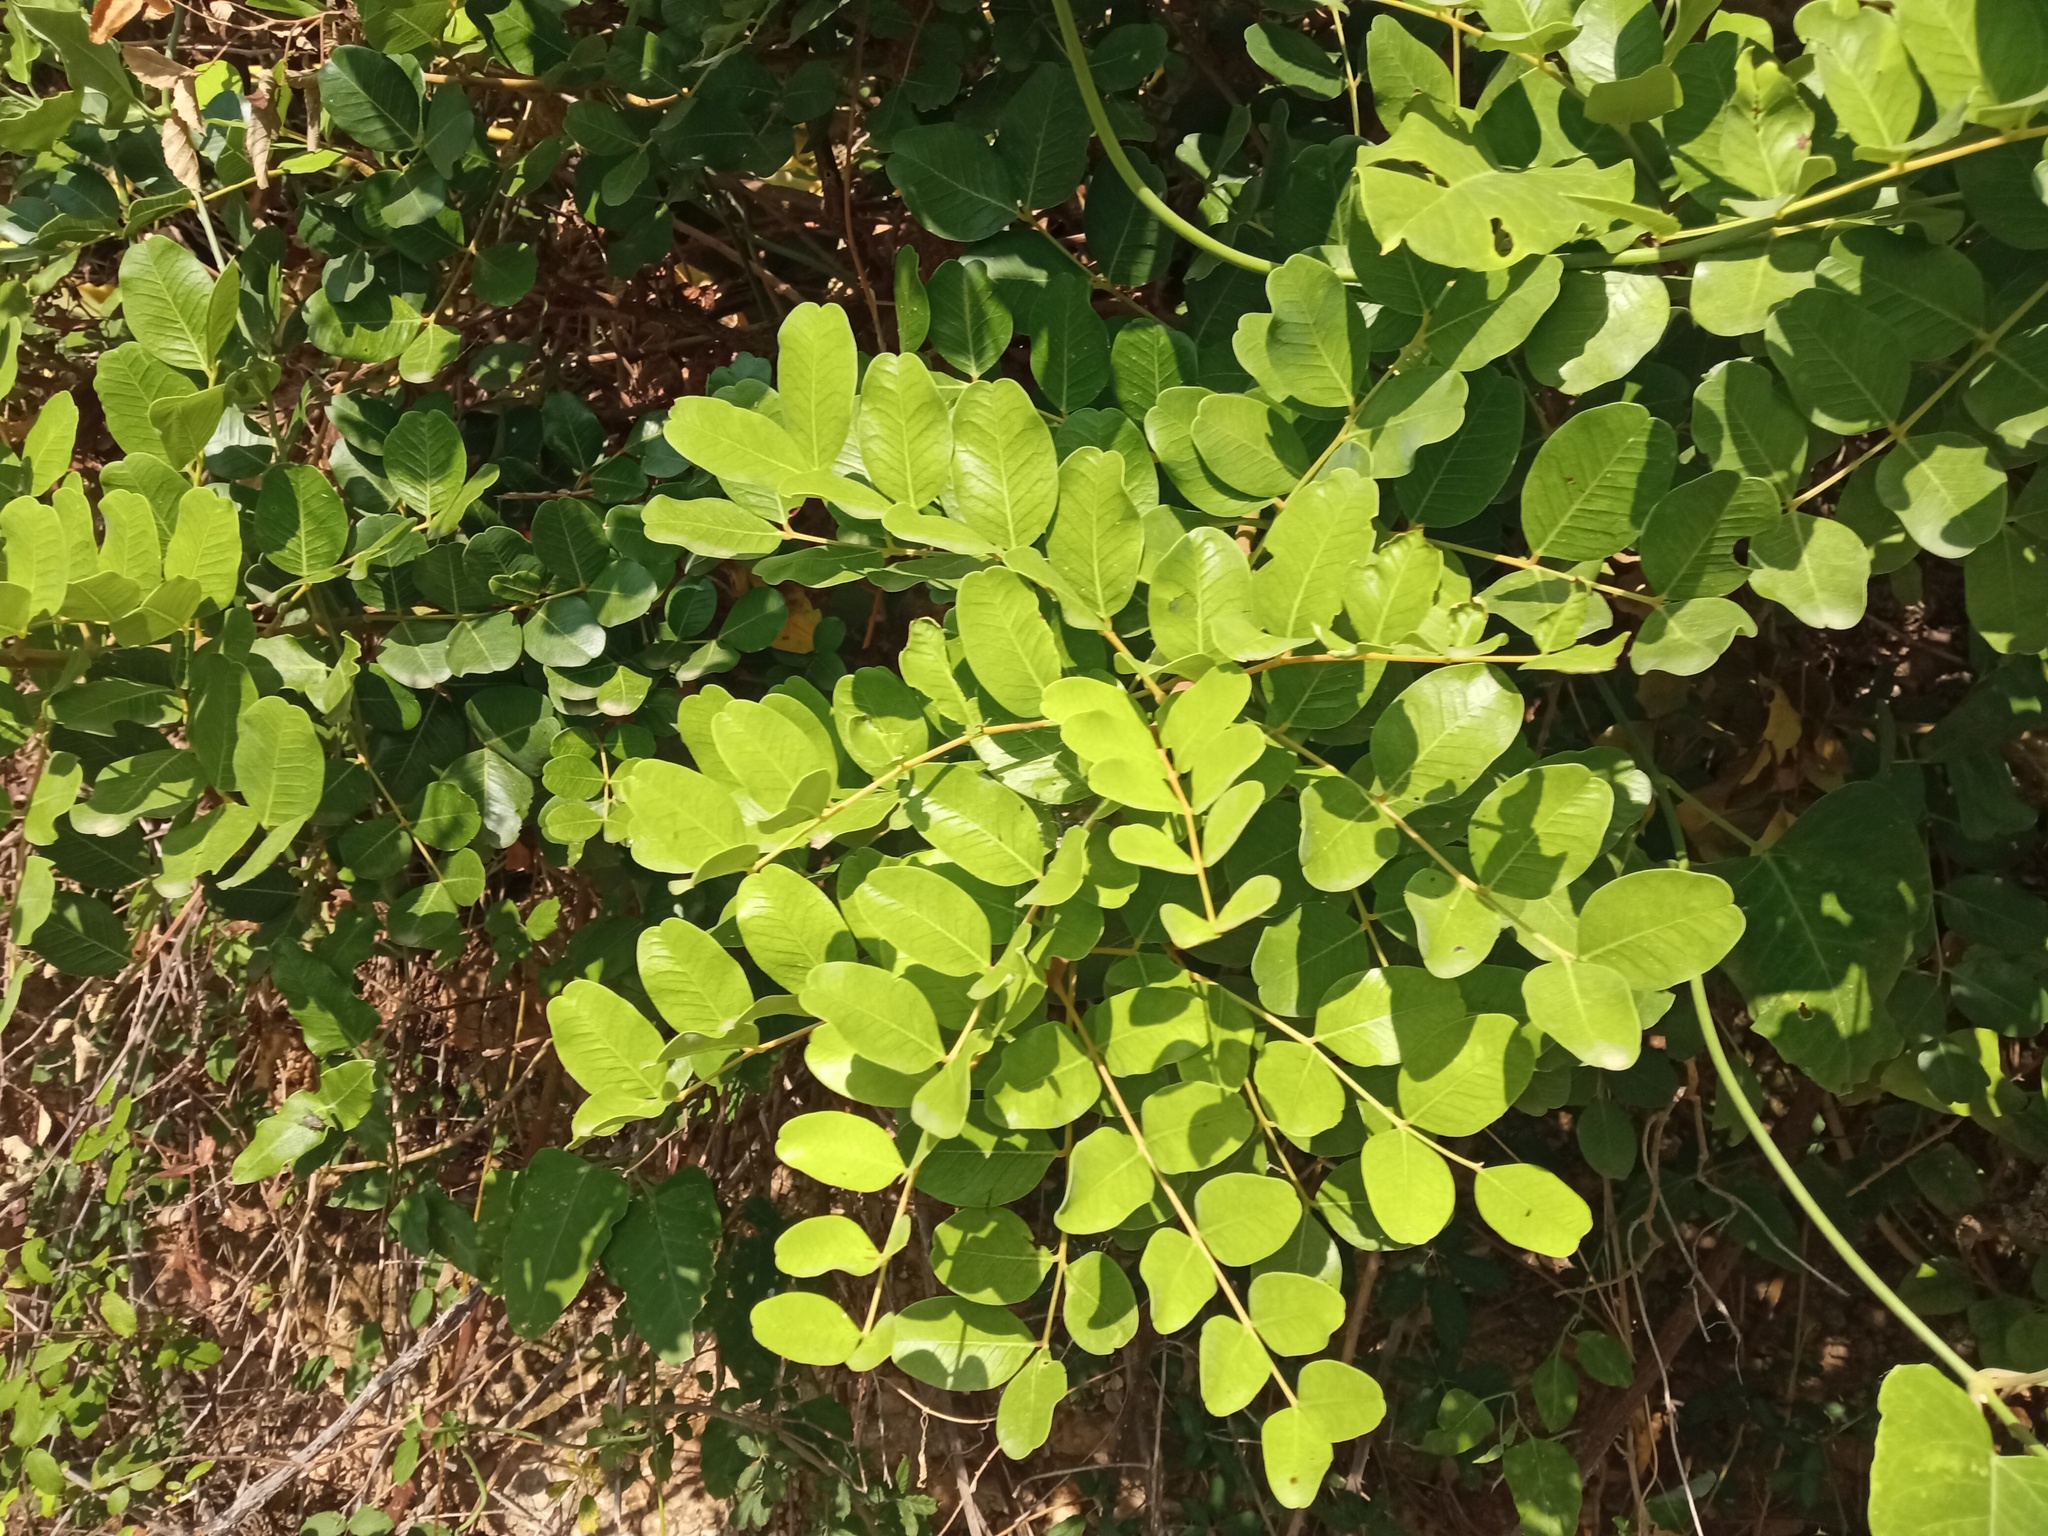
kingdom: Plantae
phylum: Tracheophyta
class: Magnoliopsida
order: Fabales
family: Fabaceae
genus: Ceratonia
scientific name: Ceratonia siliqua
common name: Carob
